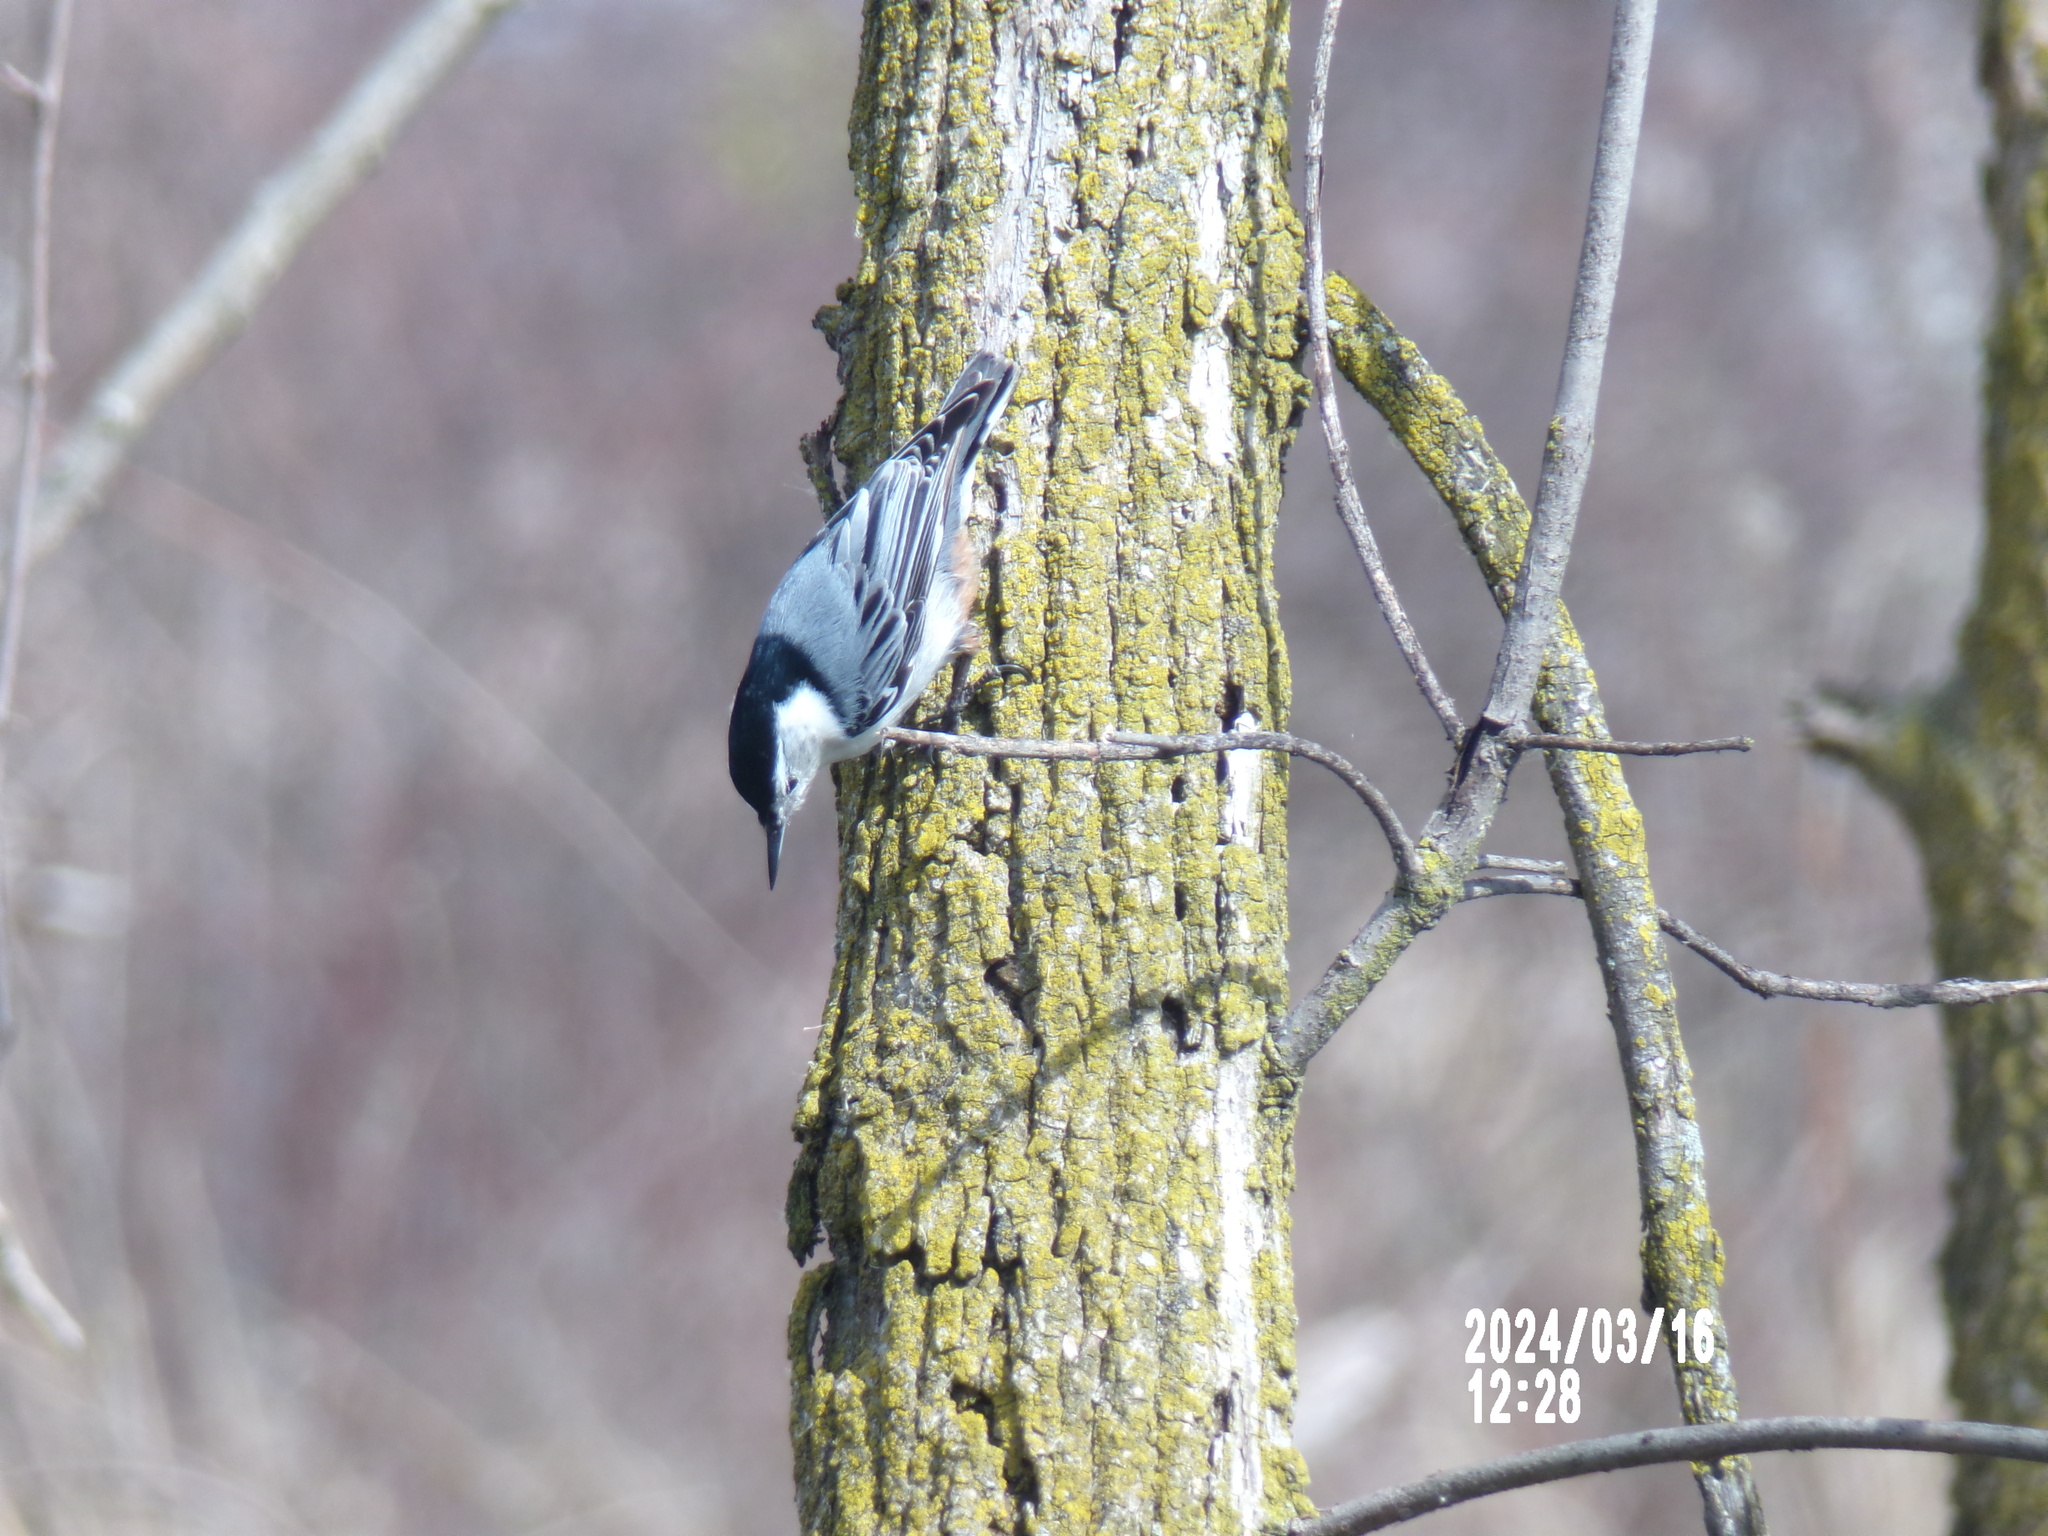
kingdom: Animalia
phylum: Chordata
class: Aves
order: Passeriformes
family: Sittidae
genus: Sitta
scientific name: Sitta carolinensis
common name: White-breasted nuthatch
